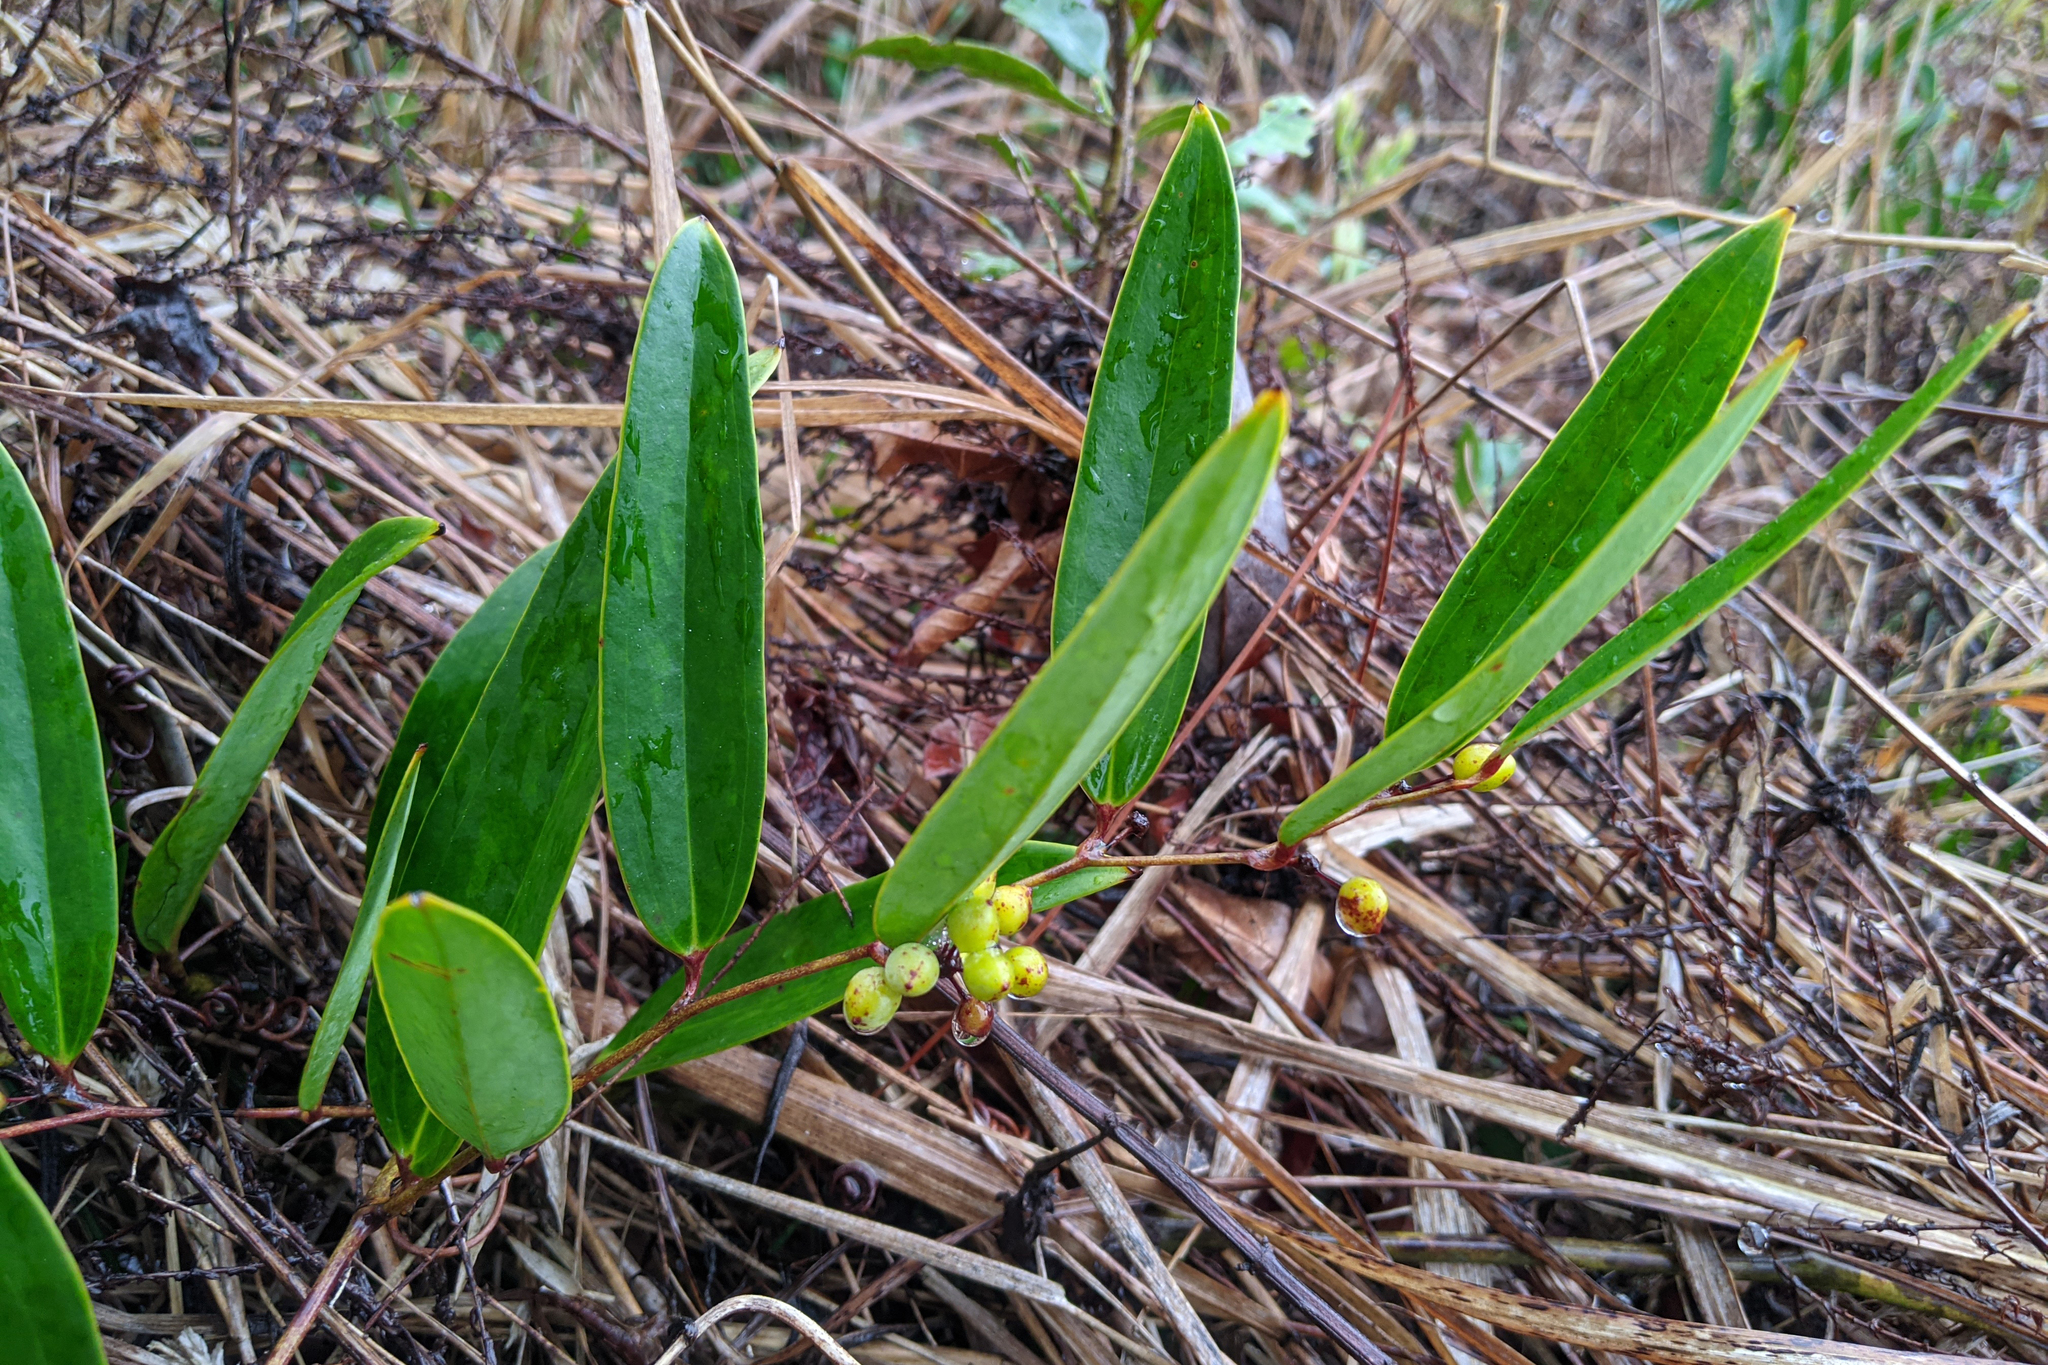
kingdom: Plantae
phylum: Tracheophyta
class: Liliopsida
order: Liliales
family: Smilacaceae
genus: Smilax
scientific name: Smilax laurifolia
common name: Bamboovine
